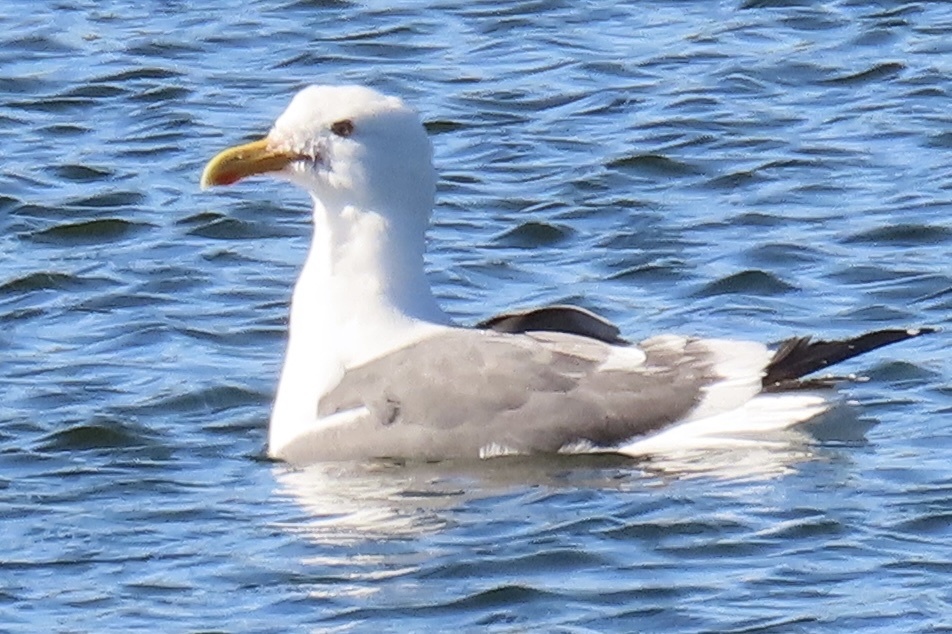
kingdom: Animalia
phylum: Chordata
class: Aves
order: Charadriiformes
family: Laridae
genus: Larus
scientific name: Larus occidentalis
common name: Western gull
